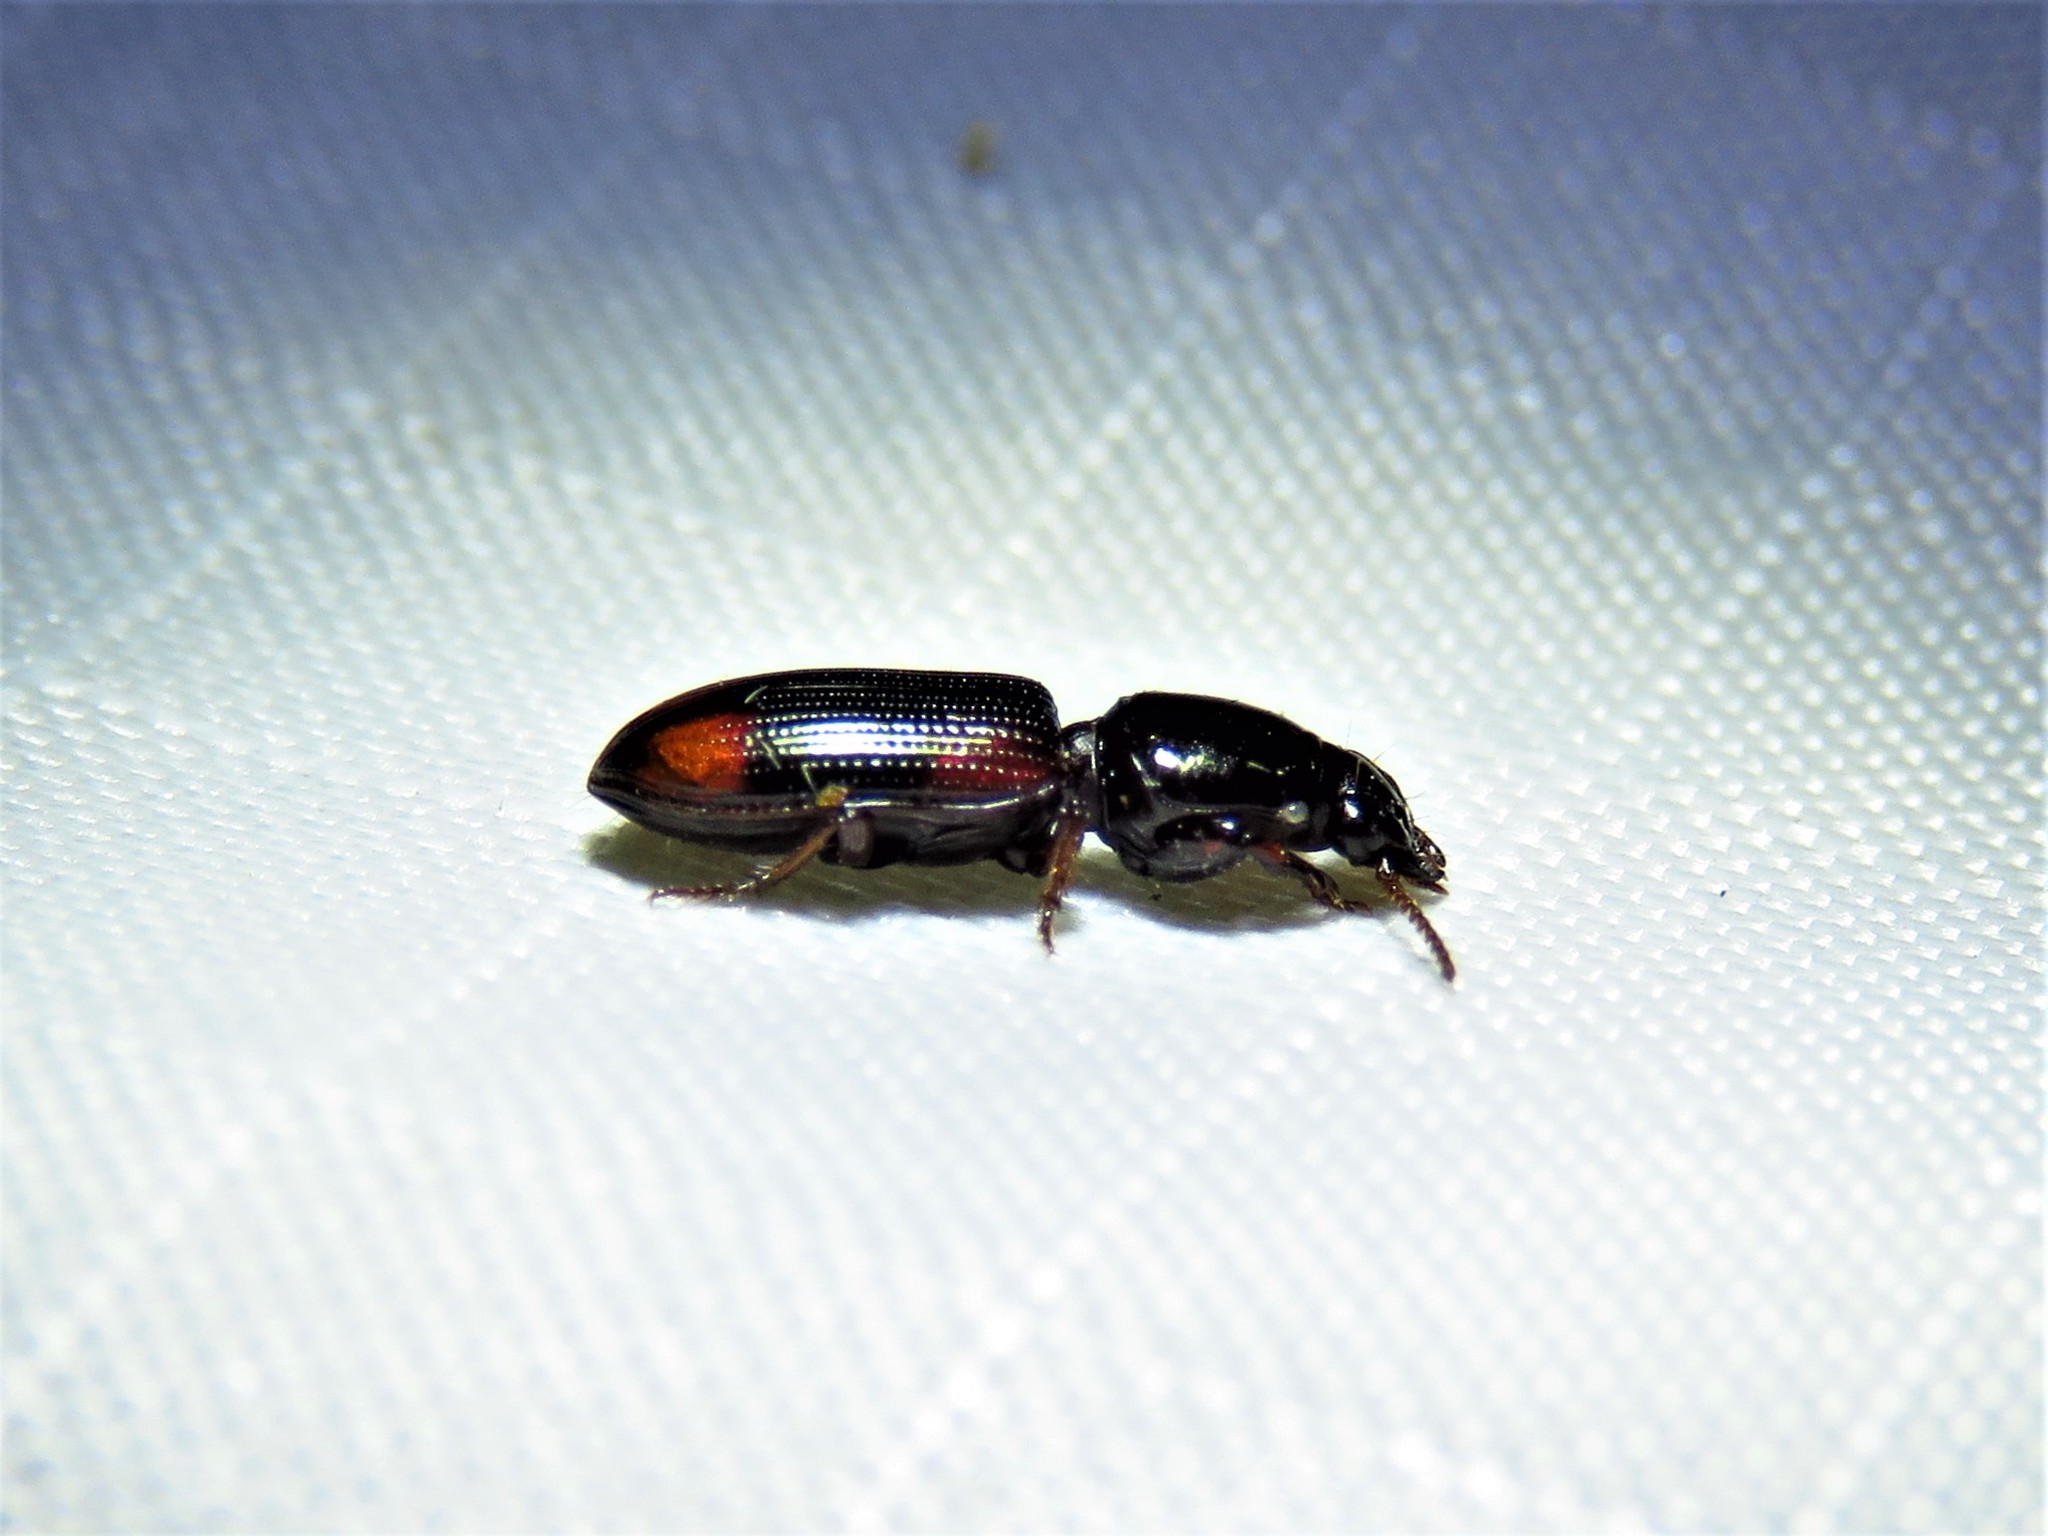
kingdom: Animalia
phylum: Arthropoda
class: Insecta
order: Coleoptera
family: Carabidae
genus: Clivina
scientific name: Clivina bipustulata
